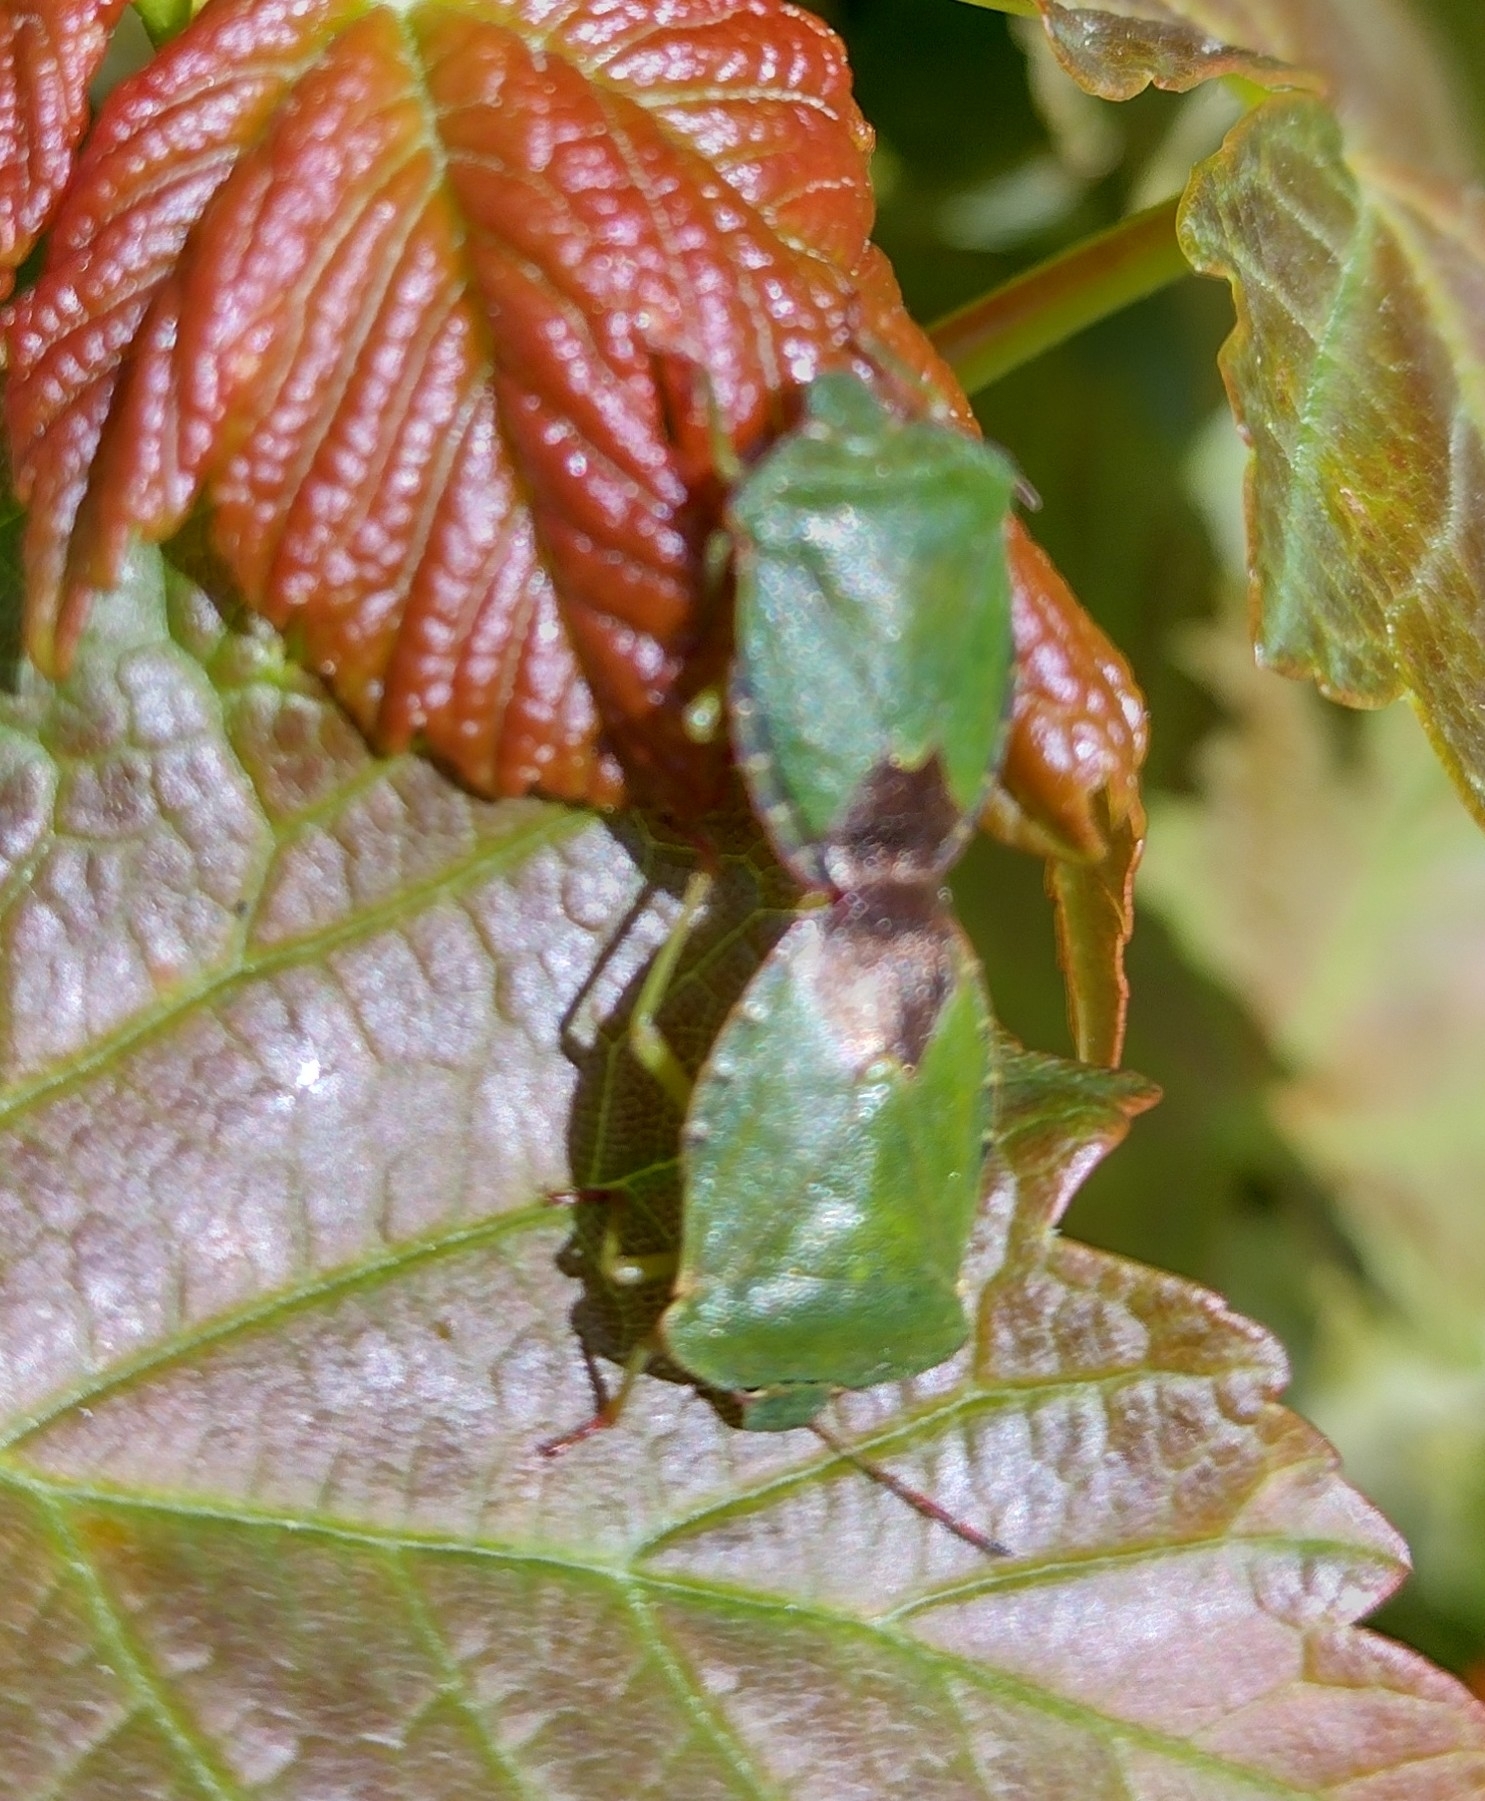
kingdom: Animalia
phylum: Arthropoda
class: Insecta
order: Hemiptera
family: Pentatomidae
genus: Palomena
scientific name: Palomena prasina
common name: Green shieldbug
